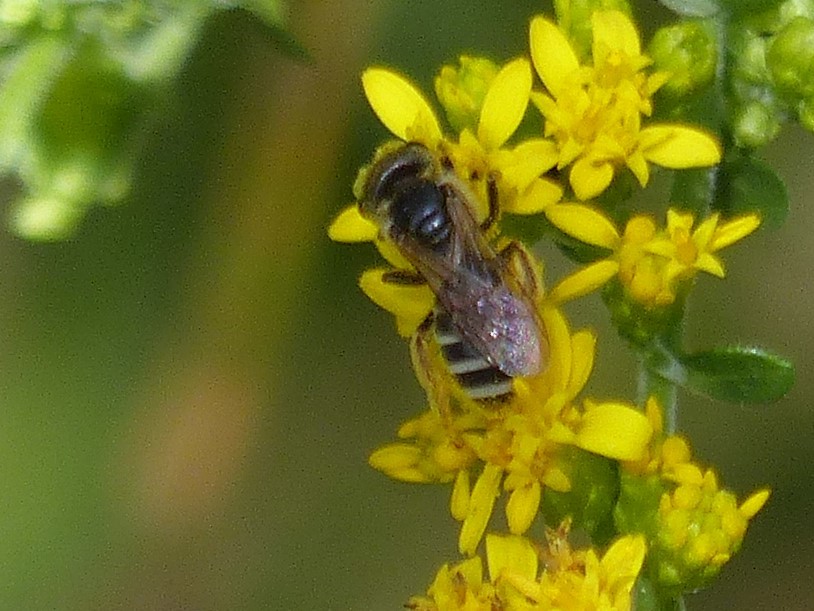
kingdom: Animalia
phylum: Arthropoda
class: Insecta
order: Hymenoptera
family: Halictidae
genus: Halictus
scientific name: Halictus ligatus
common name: Ligated furrow bee
